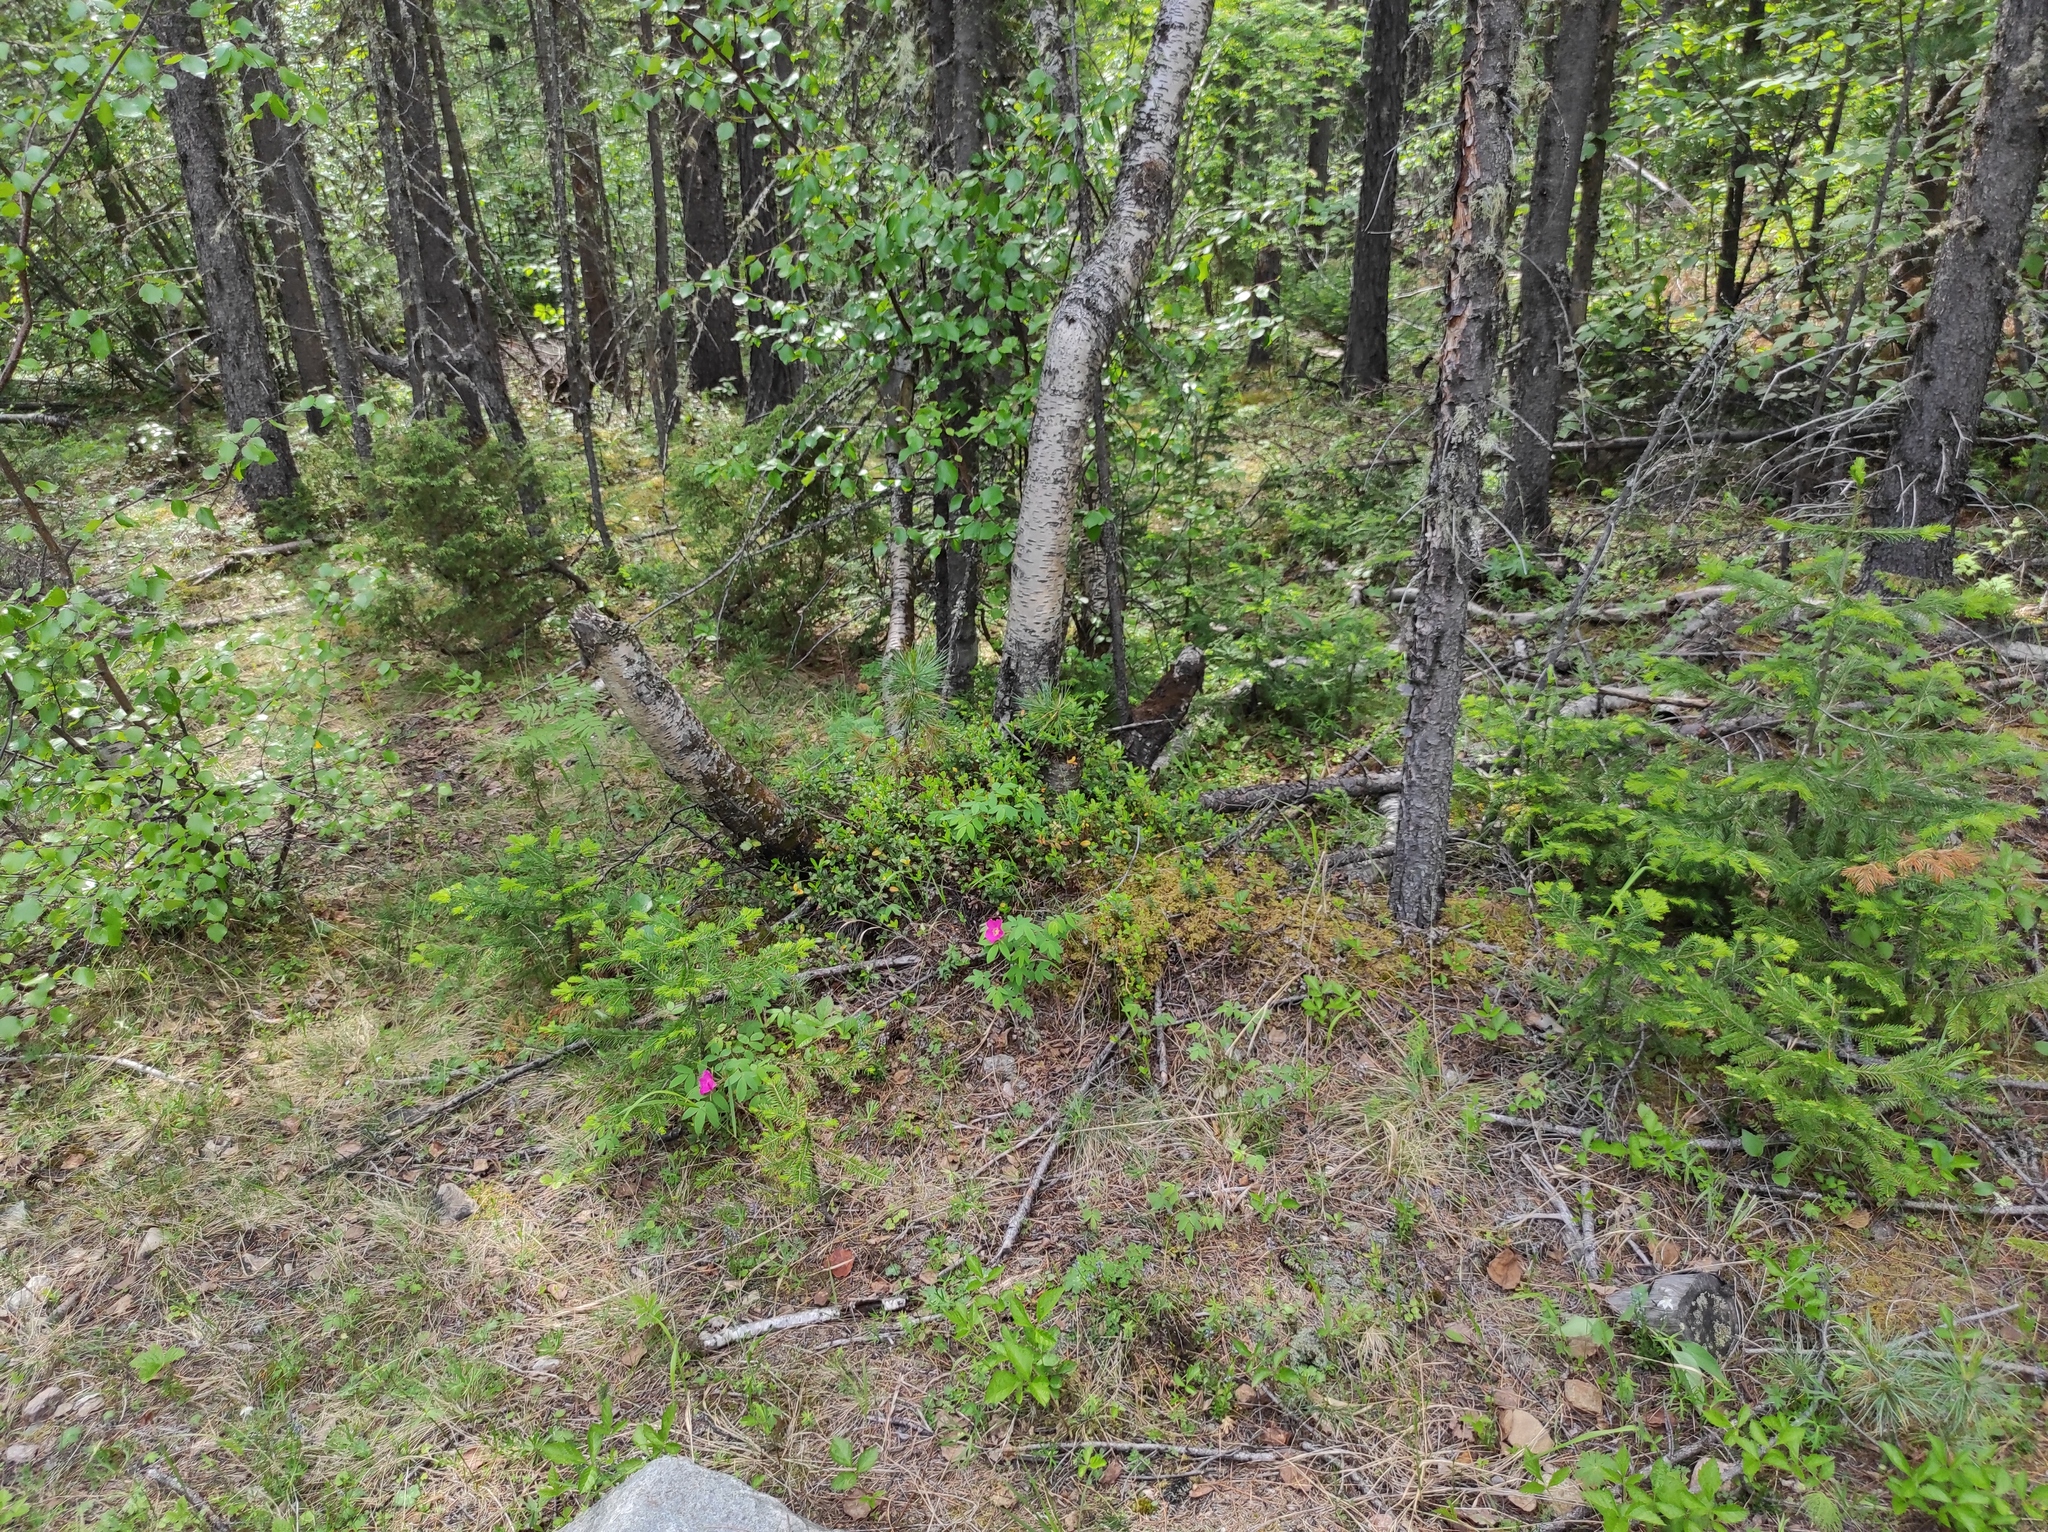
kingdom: Plantae
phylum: Tracheophyta
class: Pinopsida
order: Pinales
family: Pinaceae
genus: Abies
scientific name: Abies sibirica
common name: Siberian fir
